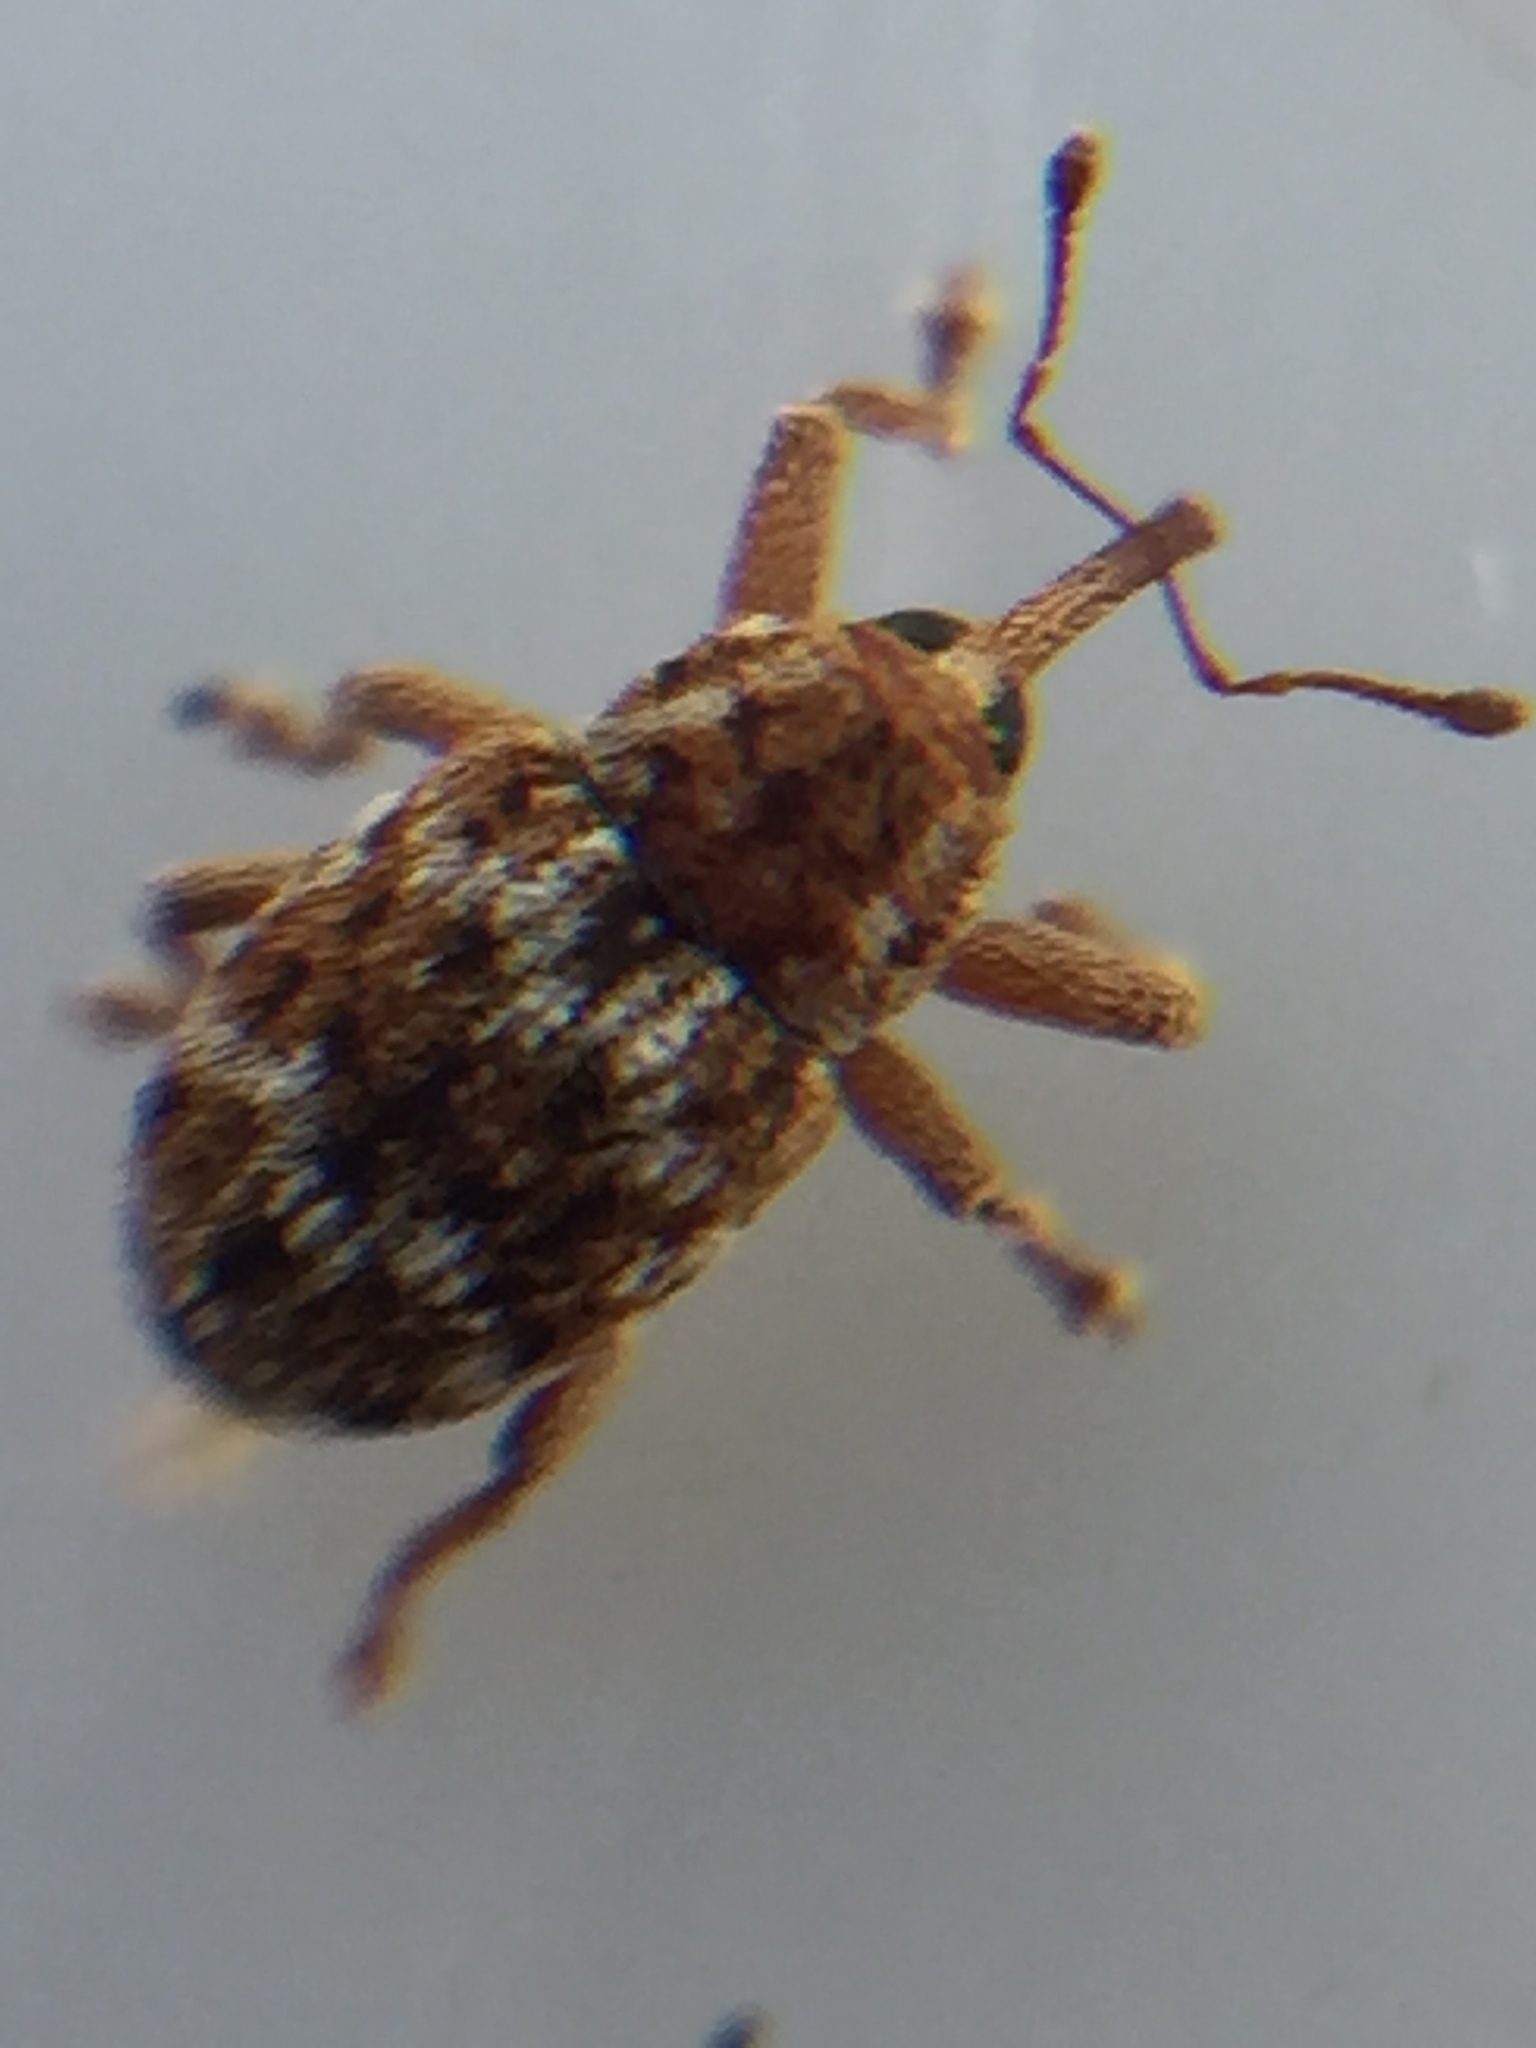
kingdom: Animalia
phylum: Arthropoda
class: Insecta
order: Coleoptera
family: Curculionidae
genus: Storeus
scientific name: Storeus albosignatus
